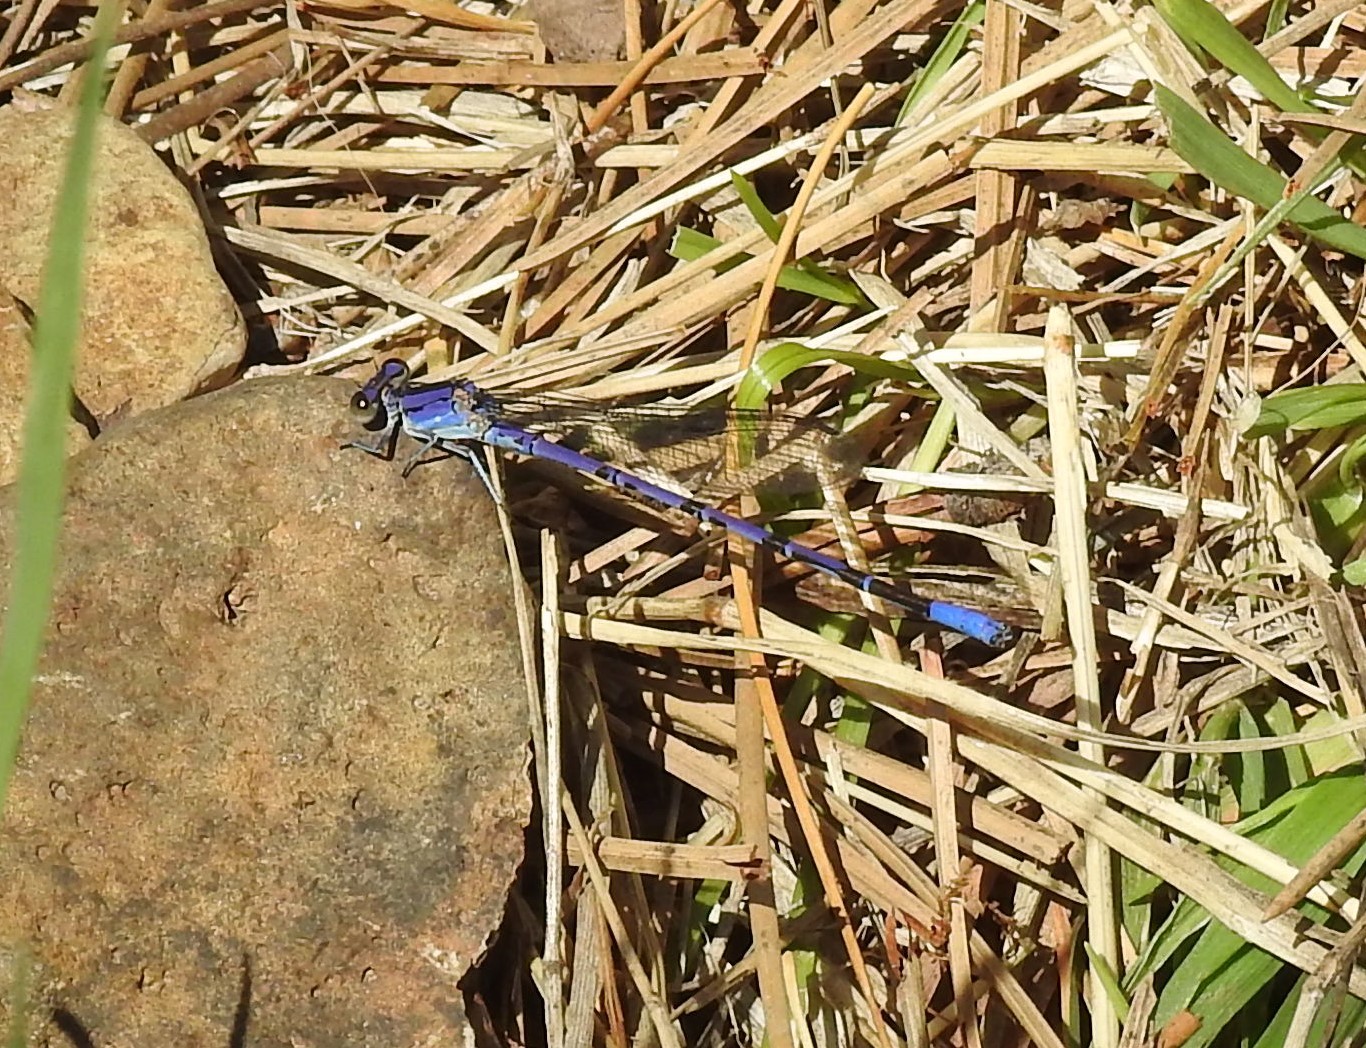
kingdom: Animalia
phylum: Arthropoda
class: Insecta
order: Odonata
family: Coenagrionidae
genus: Argia
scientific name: Argia funebris
